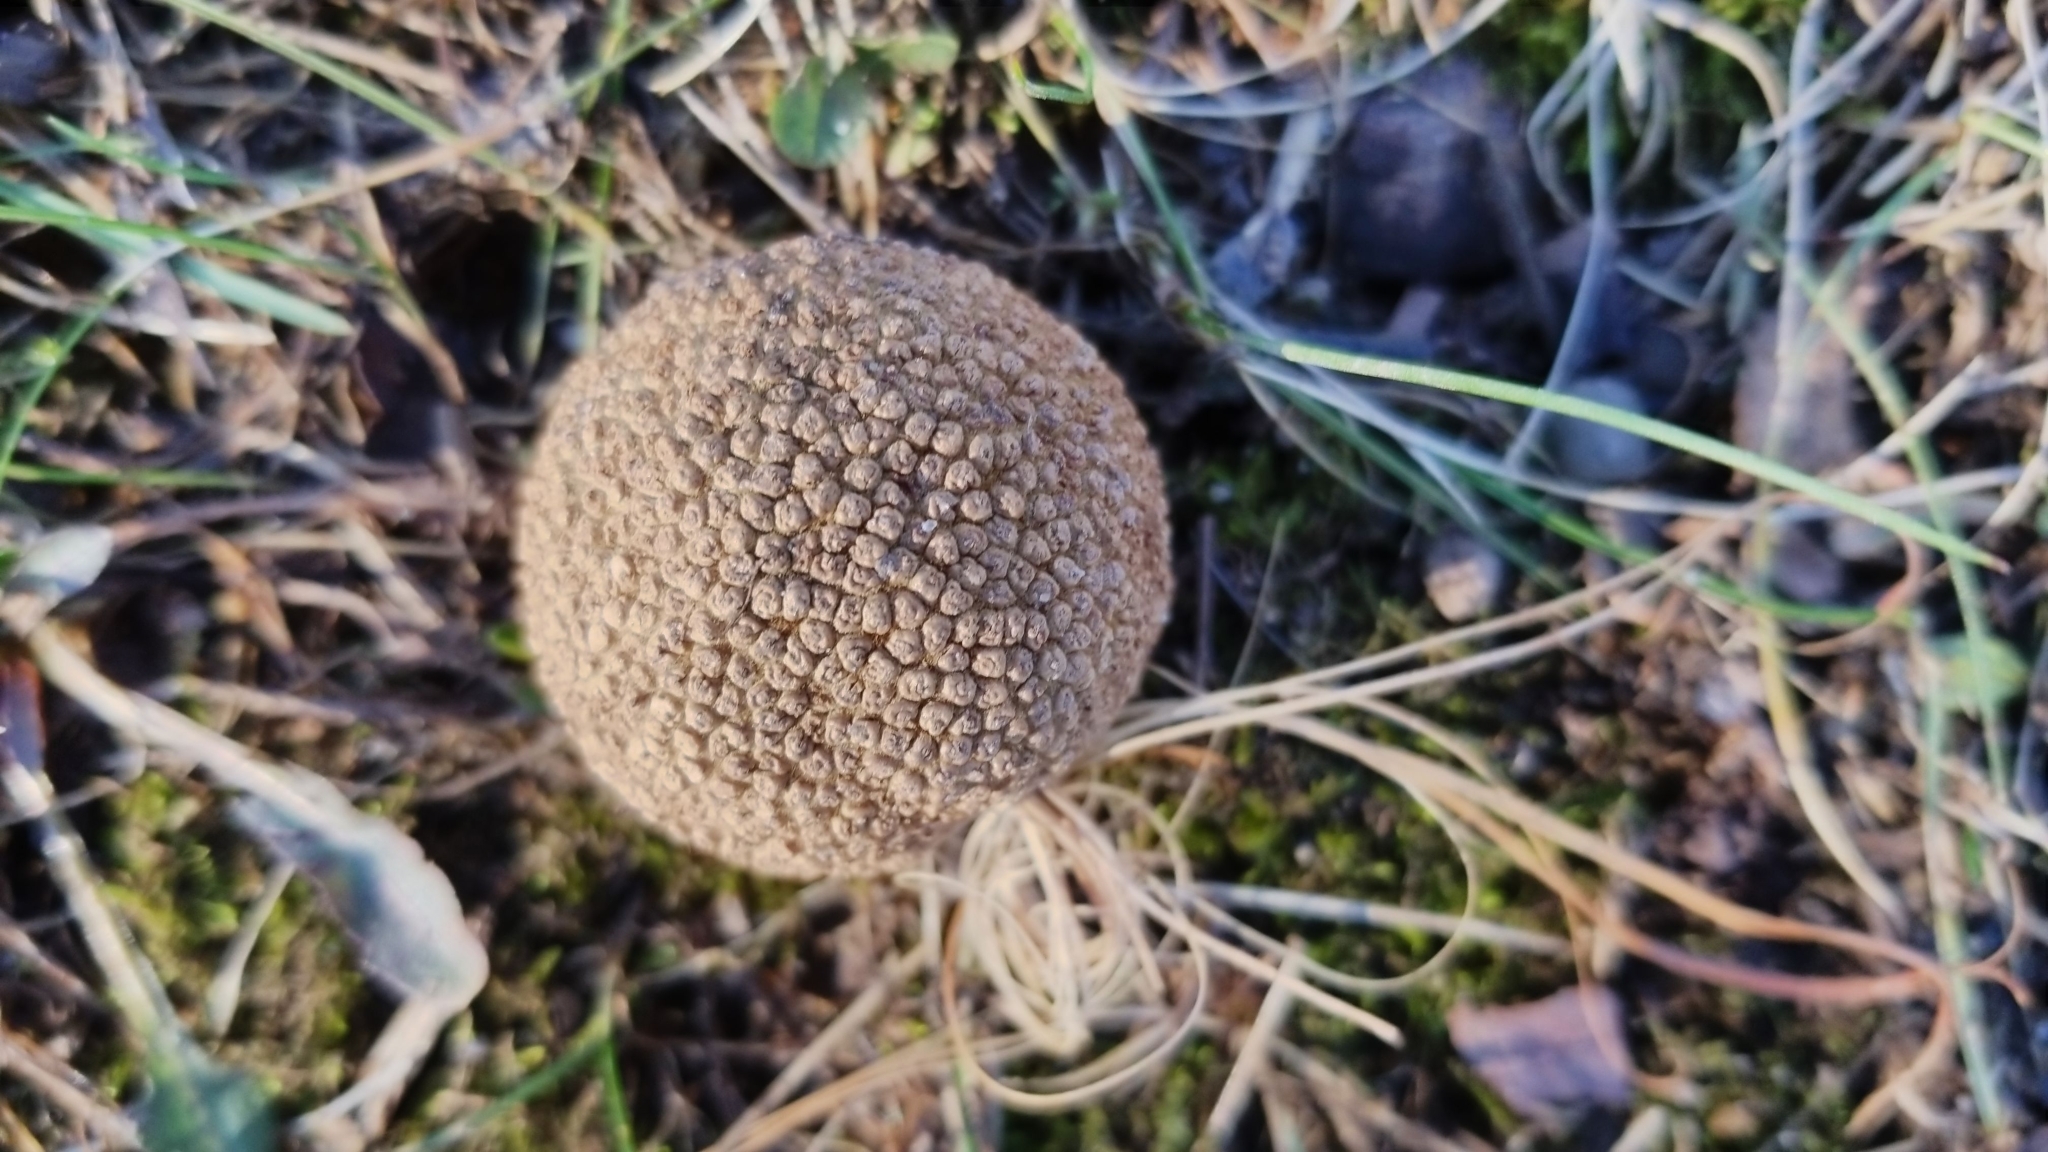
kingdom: Plantae
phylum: Tracheophyta
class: Magnoliopsida
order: Proteales
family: Platanaceae
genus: Platanus
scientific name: Platanus occidentalis
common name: American sycamore
